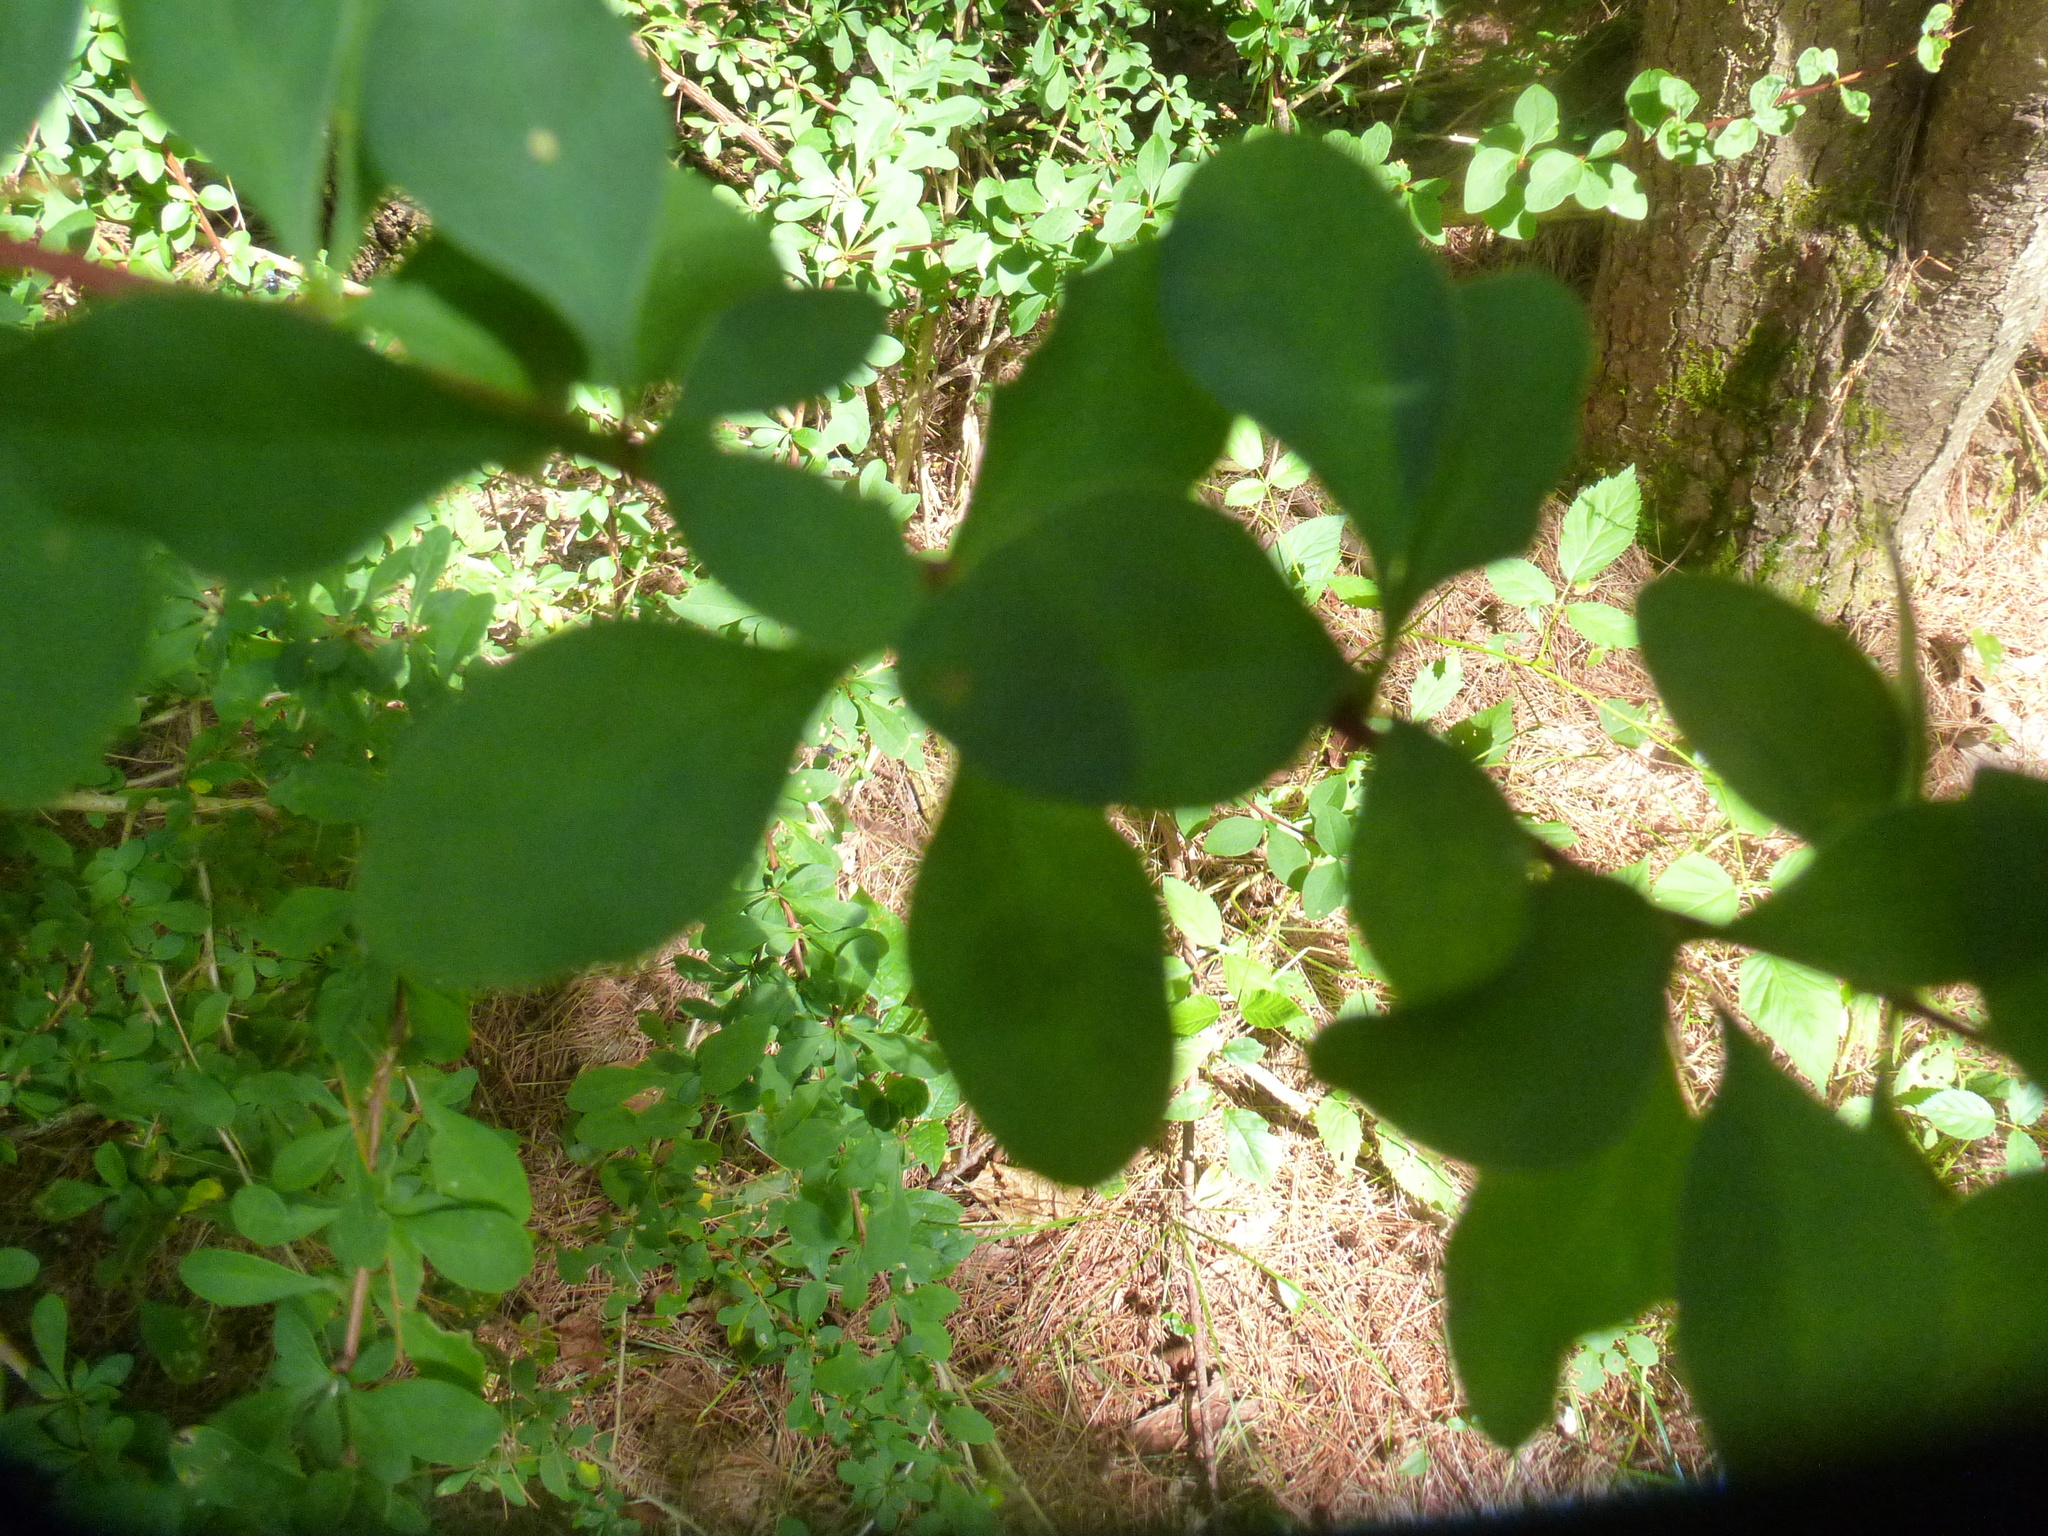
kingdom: Plantae
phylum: Tracheophyta
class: Magnoliopsida
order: Ranunculales
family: Berberidaceae
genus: Berberis
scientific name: Berberis thunbergii
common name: Japanese barberry
